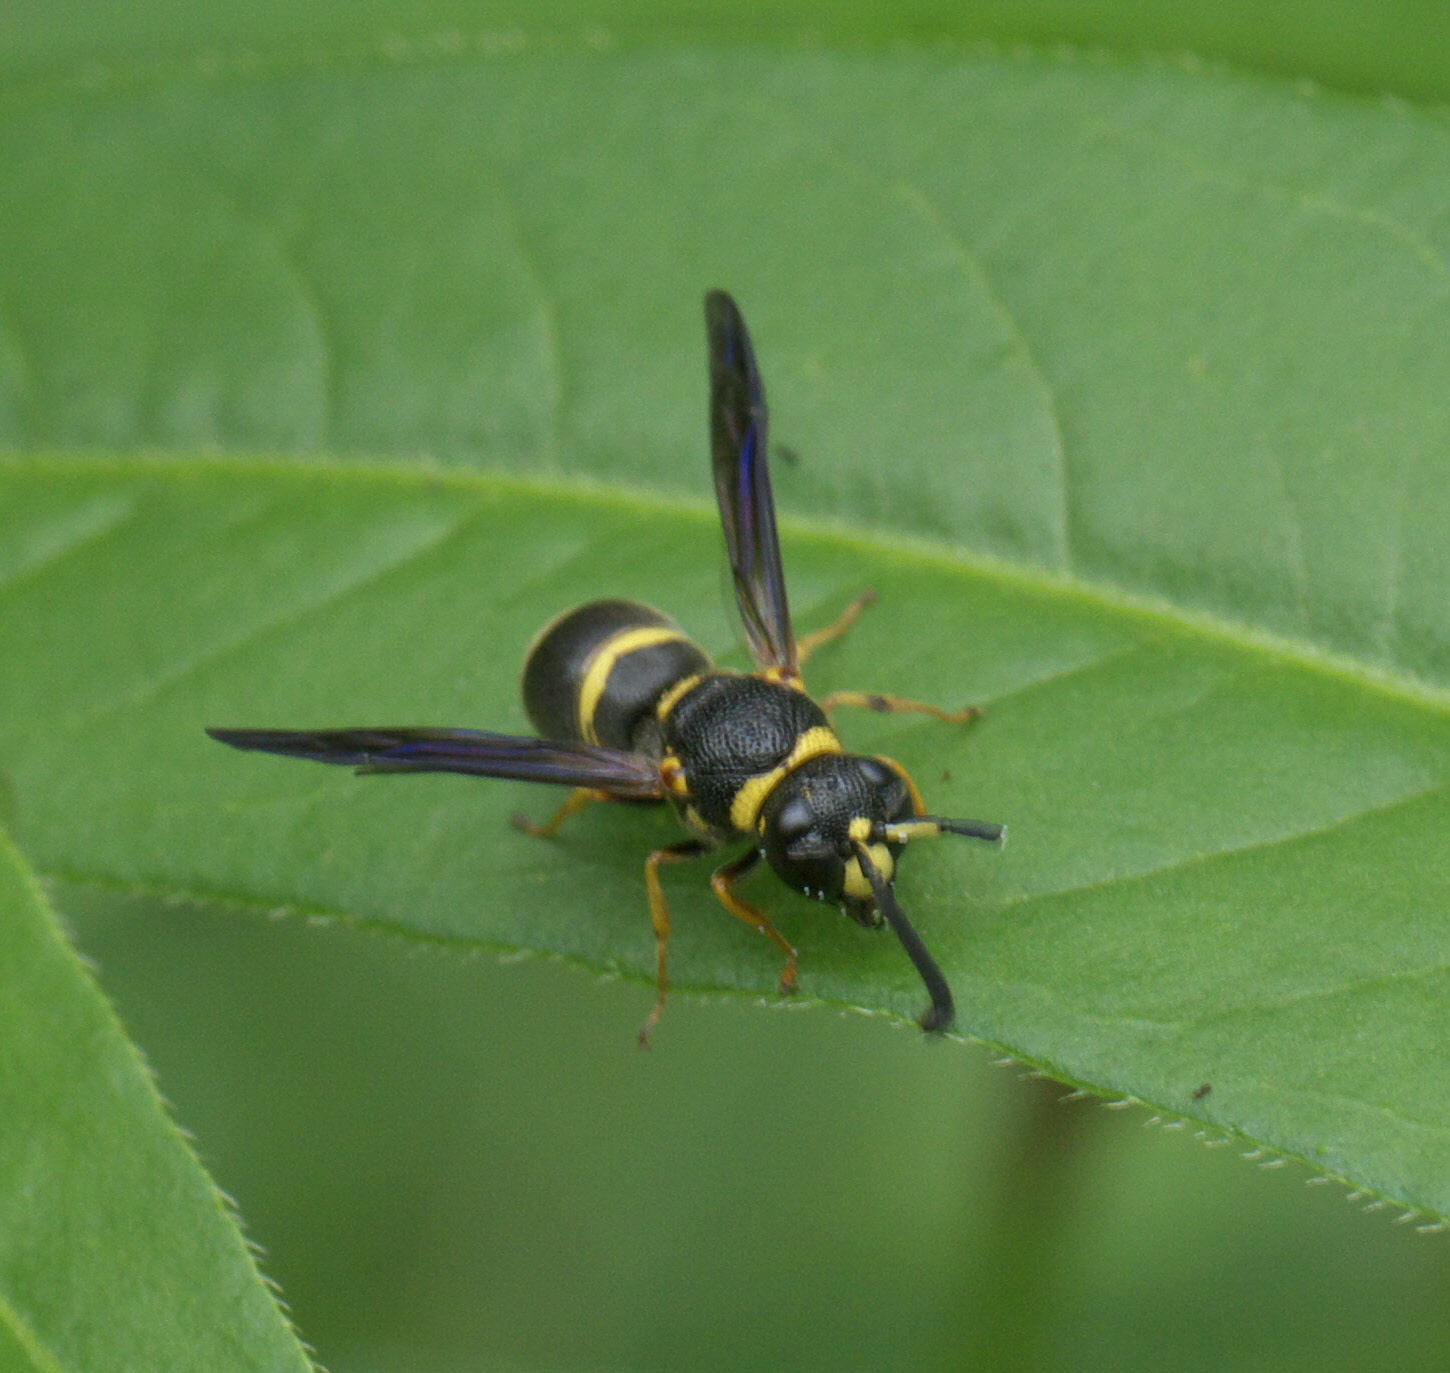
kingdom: Animalia
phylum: Arthropoda
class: Insecta
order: Hymenoptera
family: Eumenidae
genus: Euodynerus
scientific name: Euodynerus foraminatus
